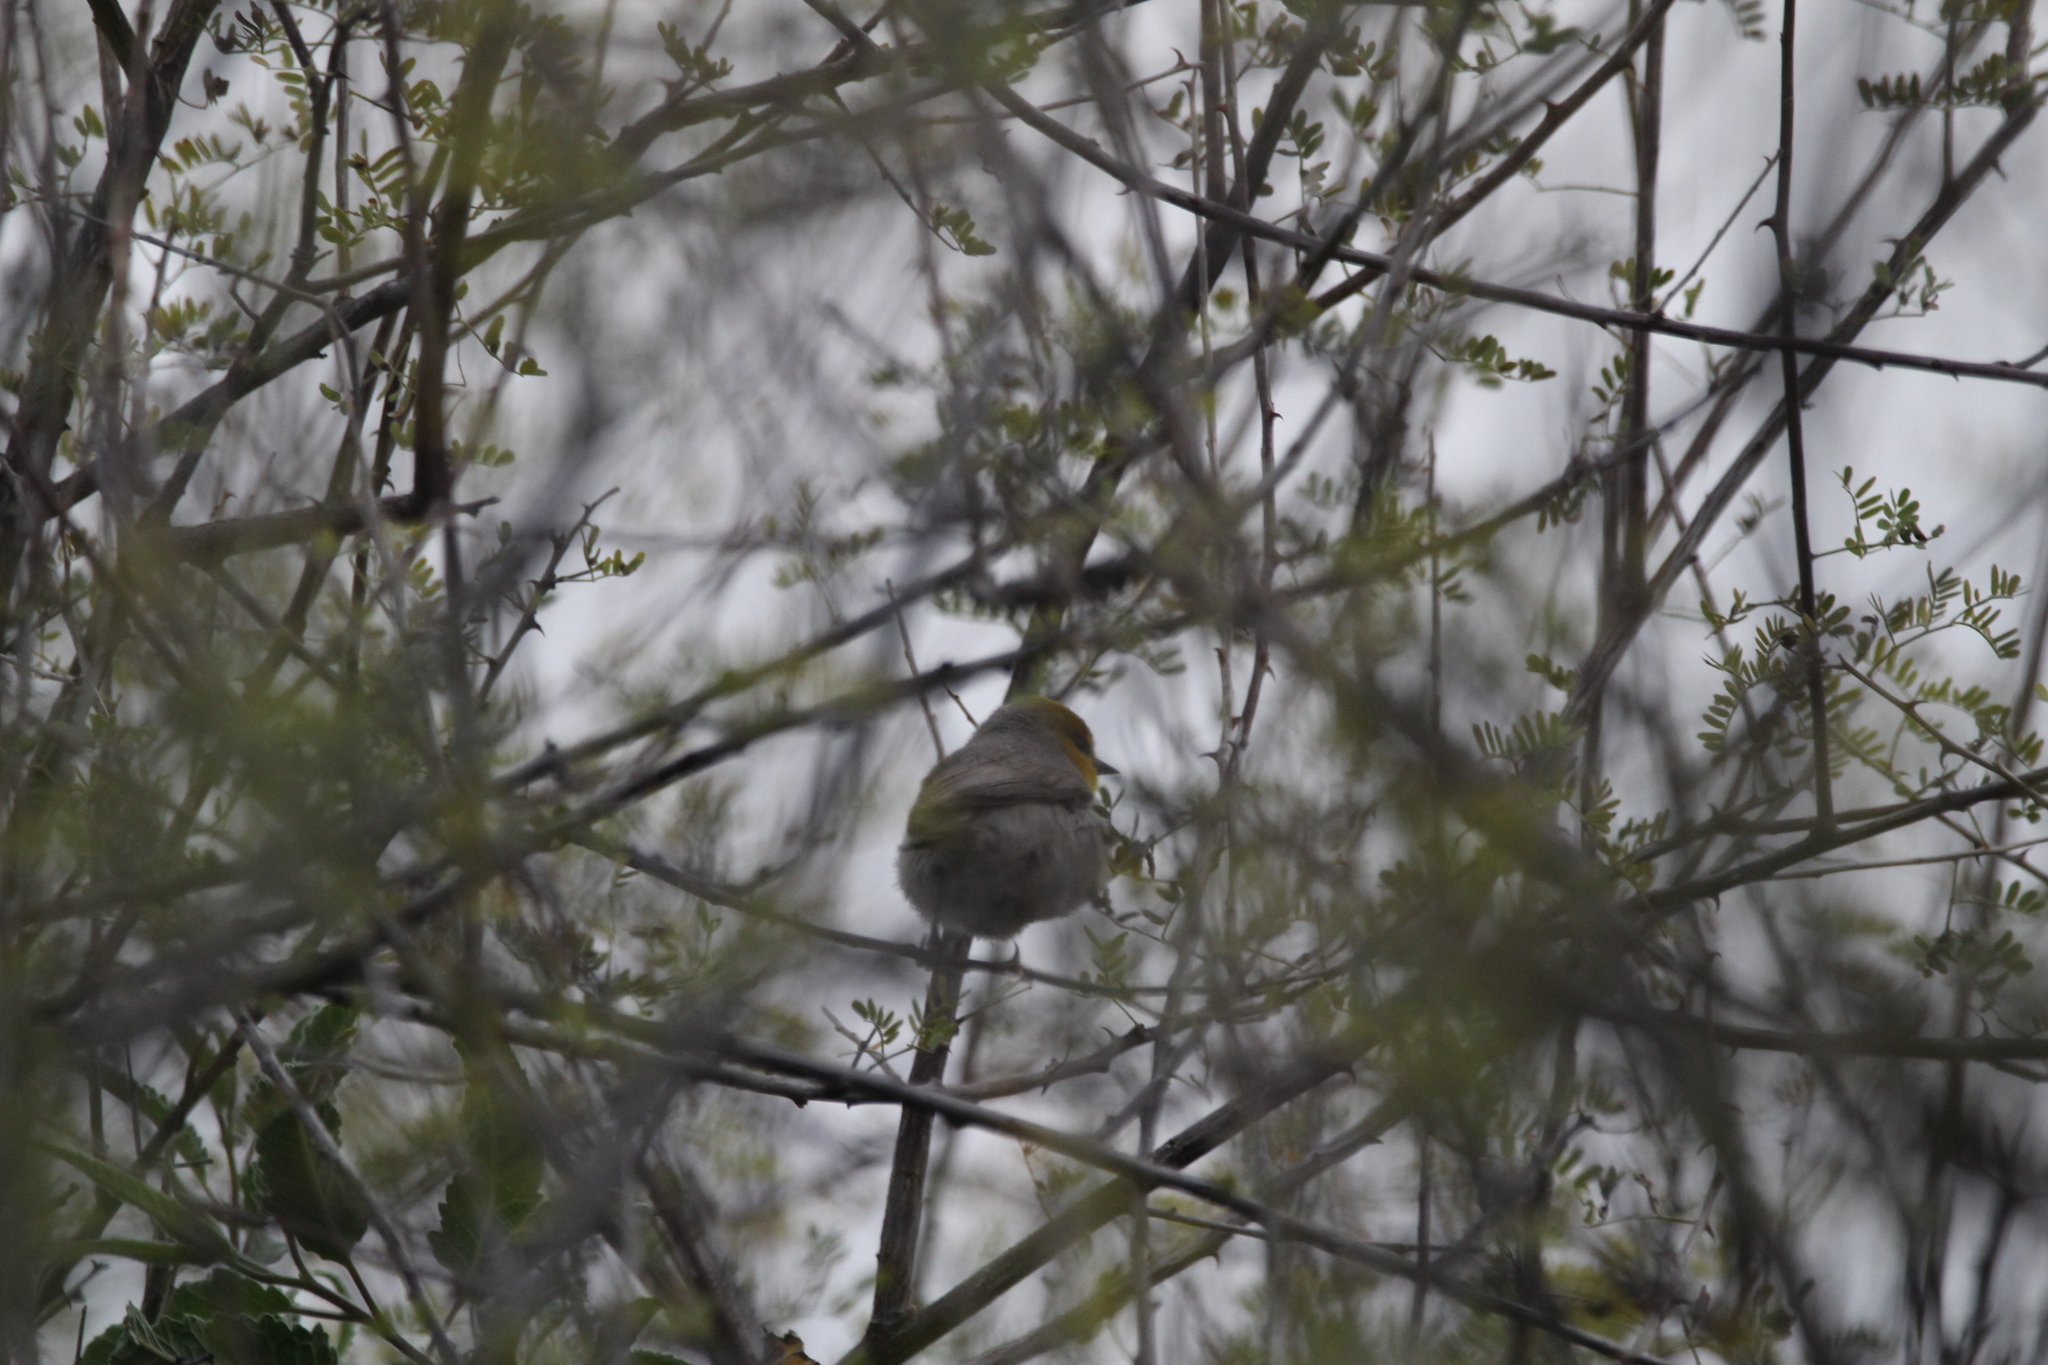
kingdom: Animalia
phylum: Chordata
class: Aves
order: Passeriformes
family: Remizidae
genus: Auriparus
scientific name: Auriparus flaviceps
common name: Verdin
